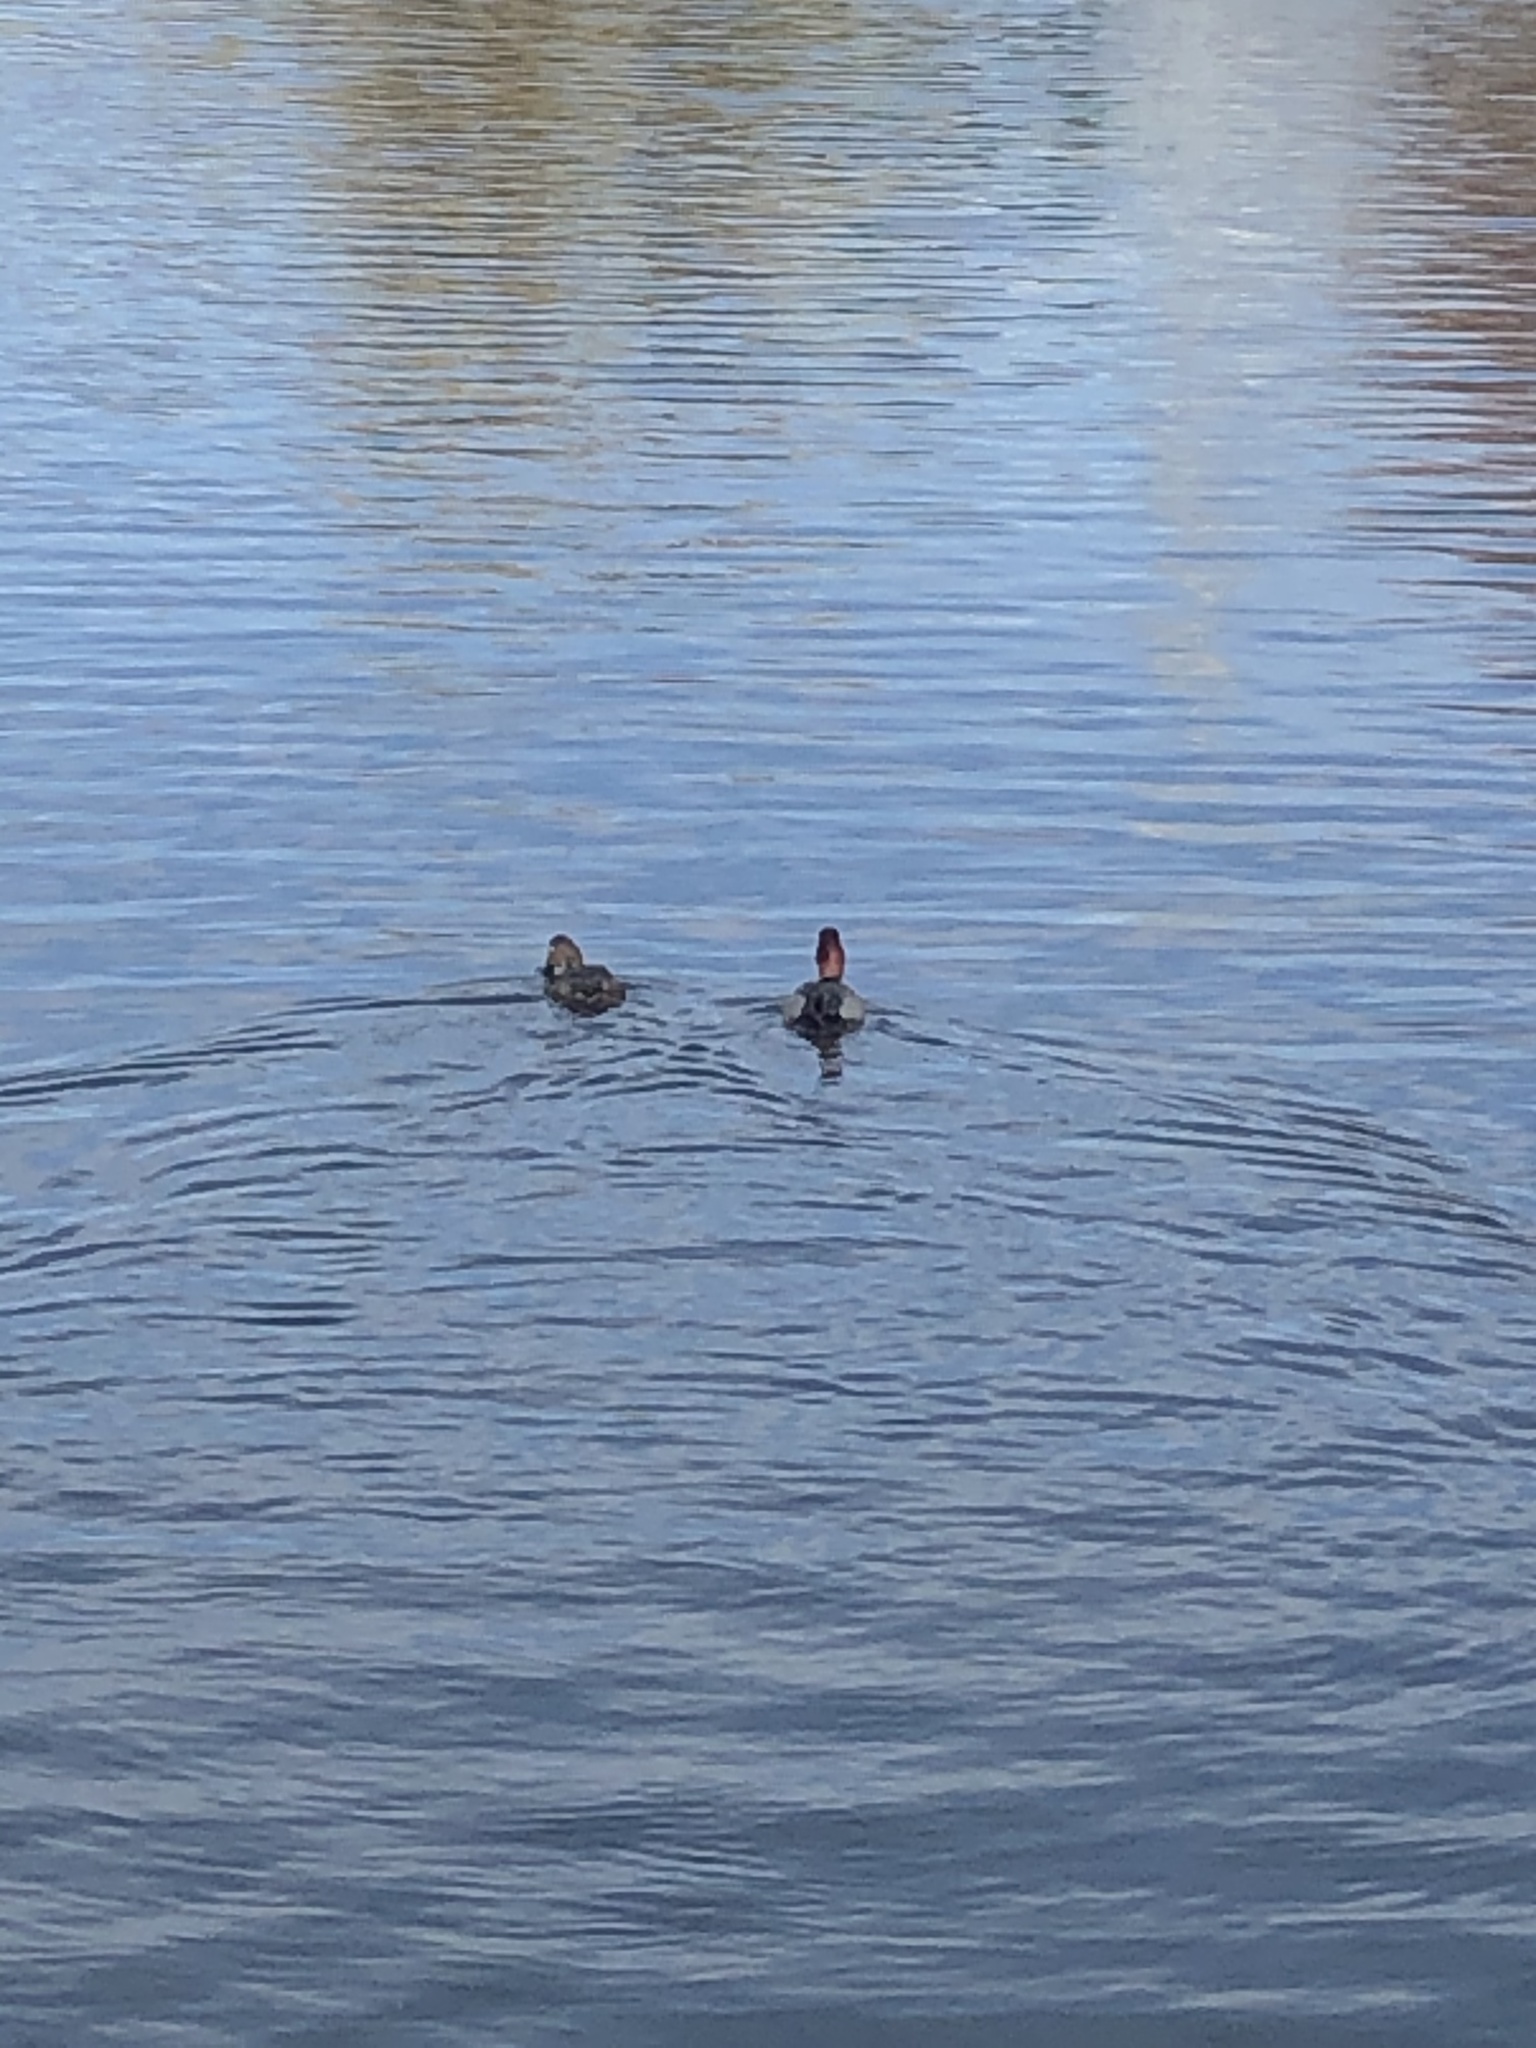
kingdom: Animalia
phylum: Chordata
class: Aves
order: Anseriformes
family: Anatidae
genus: Aythya
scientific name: Aythya americana
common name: Redhead
